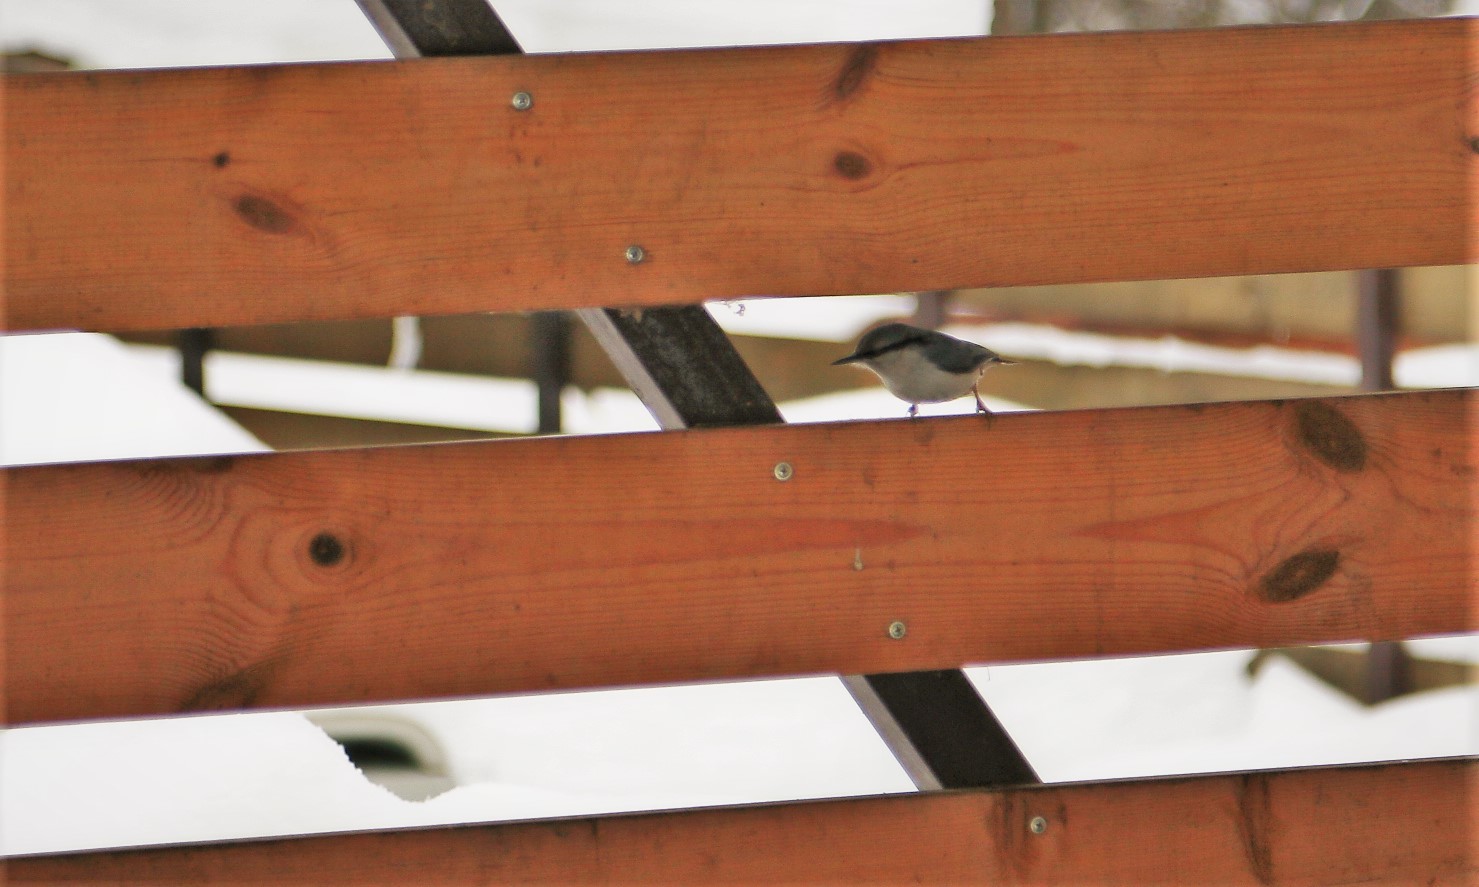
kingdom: Animalia
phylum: Chordata
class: Aves
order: Passeriformes
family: Sittidae
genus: Sitta
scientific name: Sitta europaea
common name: Eurasian nuthatch
